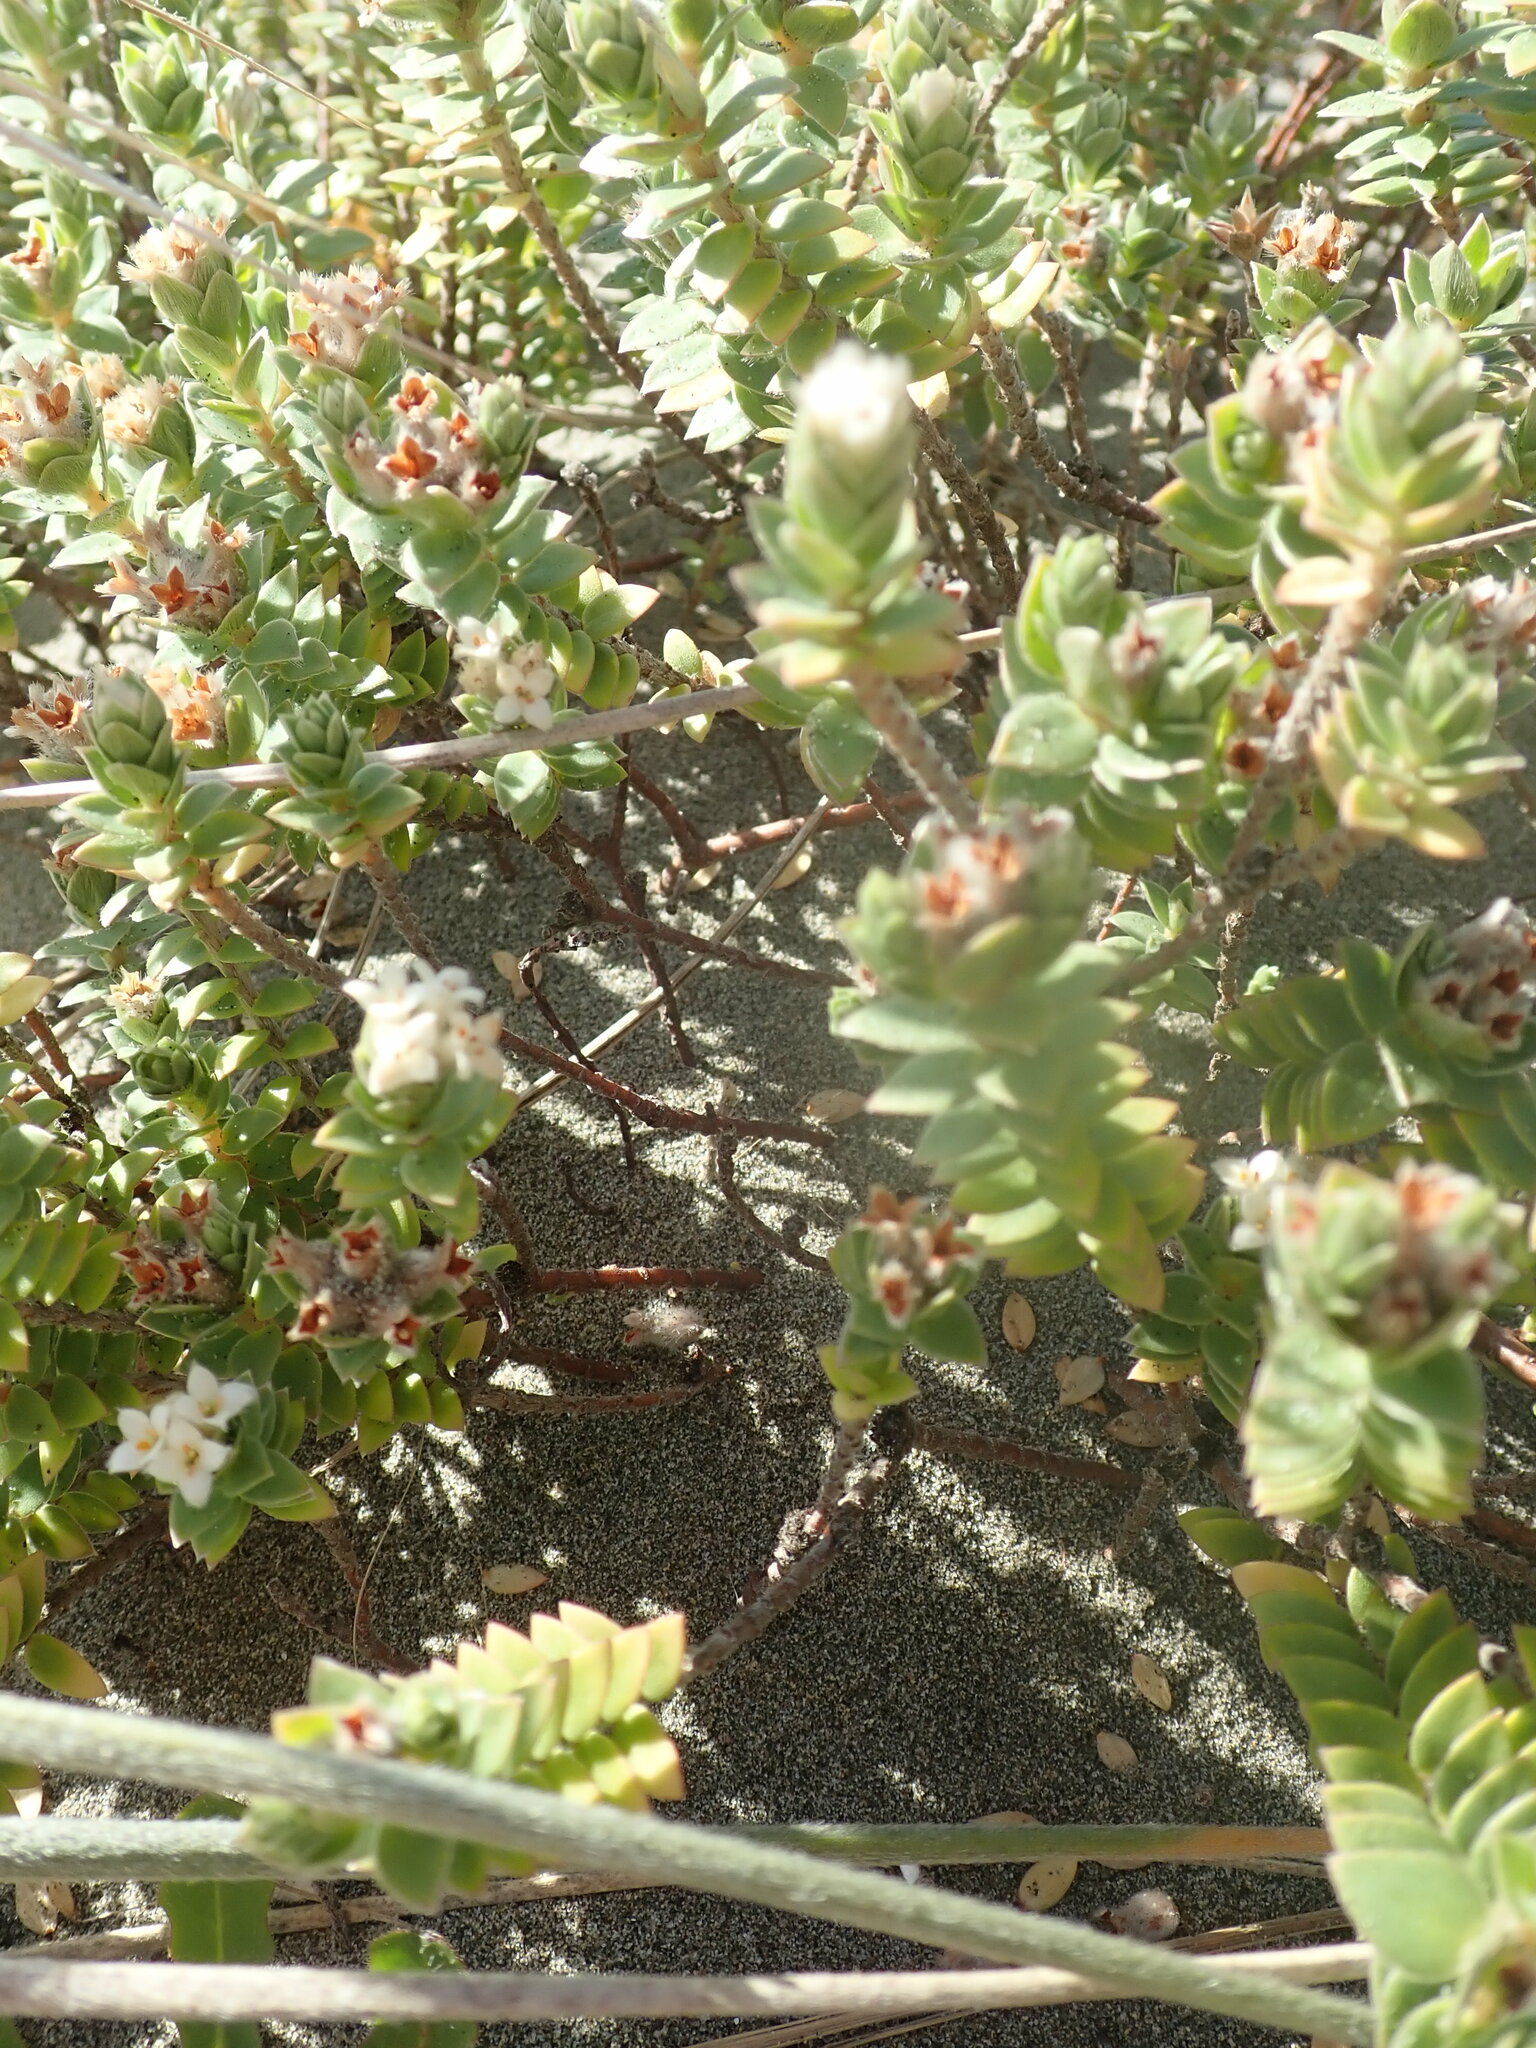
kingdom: Plantae
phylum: Tracheophyta
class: Magnoliopsida
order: Malvales
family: Thymelaeaceae
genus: Pimelea
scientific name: Pimelea villosa
